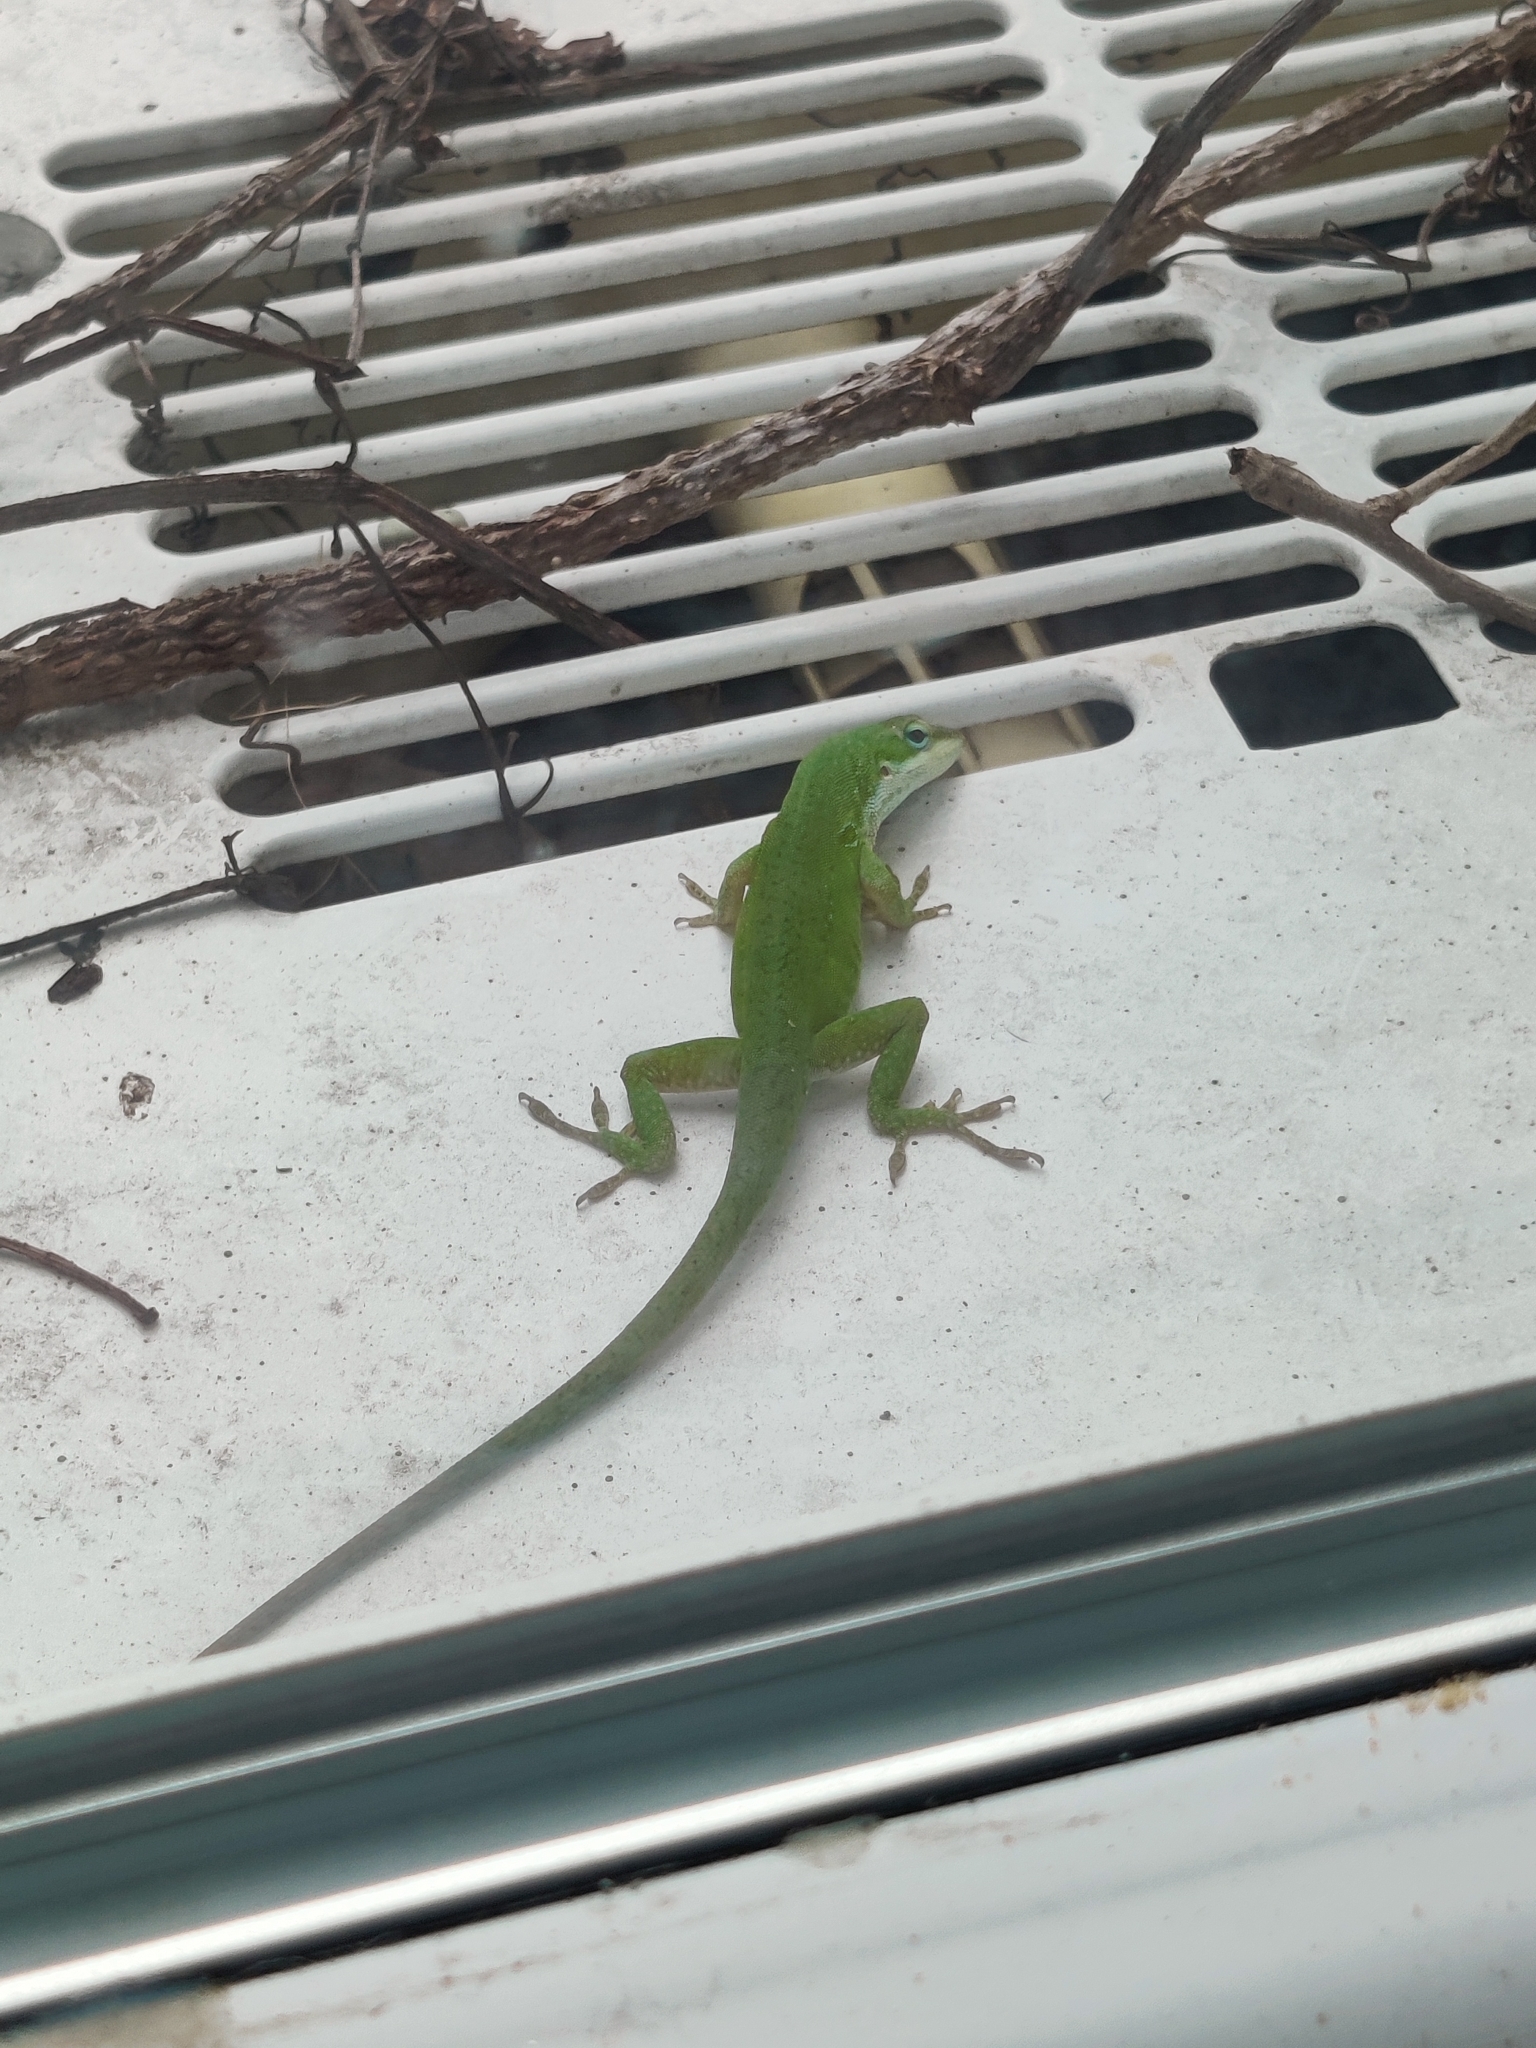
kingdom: Animalia
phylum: Chordata
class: Squamata
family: Dactyloidae
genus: Anolis
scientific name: Anolis carolinensis
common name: Green anole
